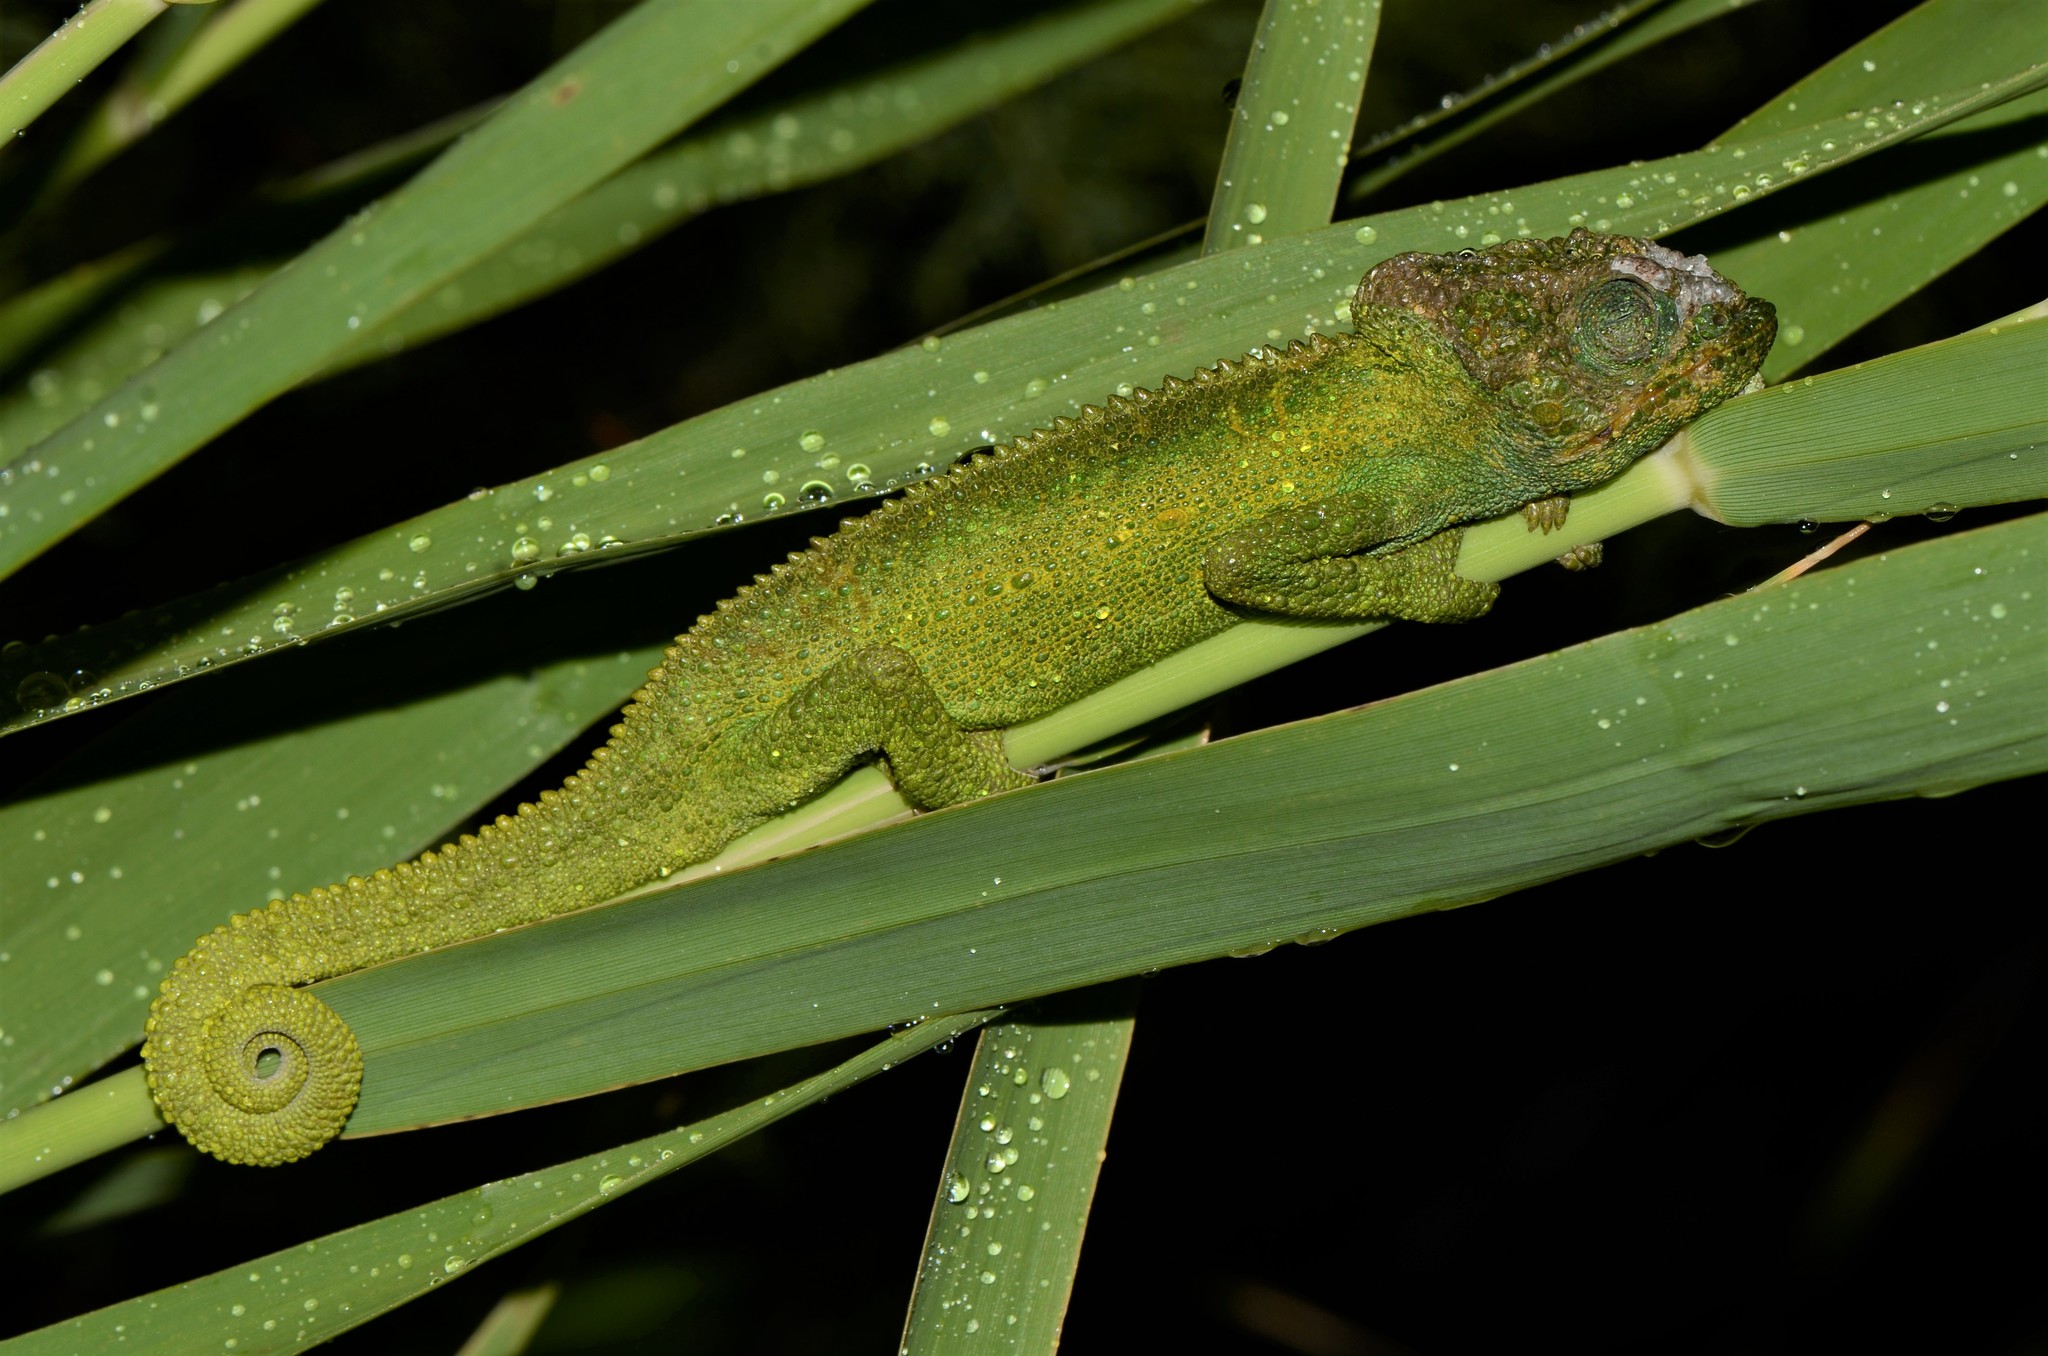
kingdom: Animalia
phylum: Chordata
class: Squamata
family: Chamaeleonidae
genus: Bradypodion
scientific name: Bradypodion pumilum
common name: Cape dwarf chameleon
